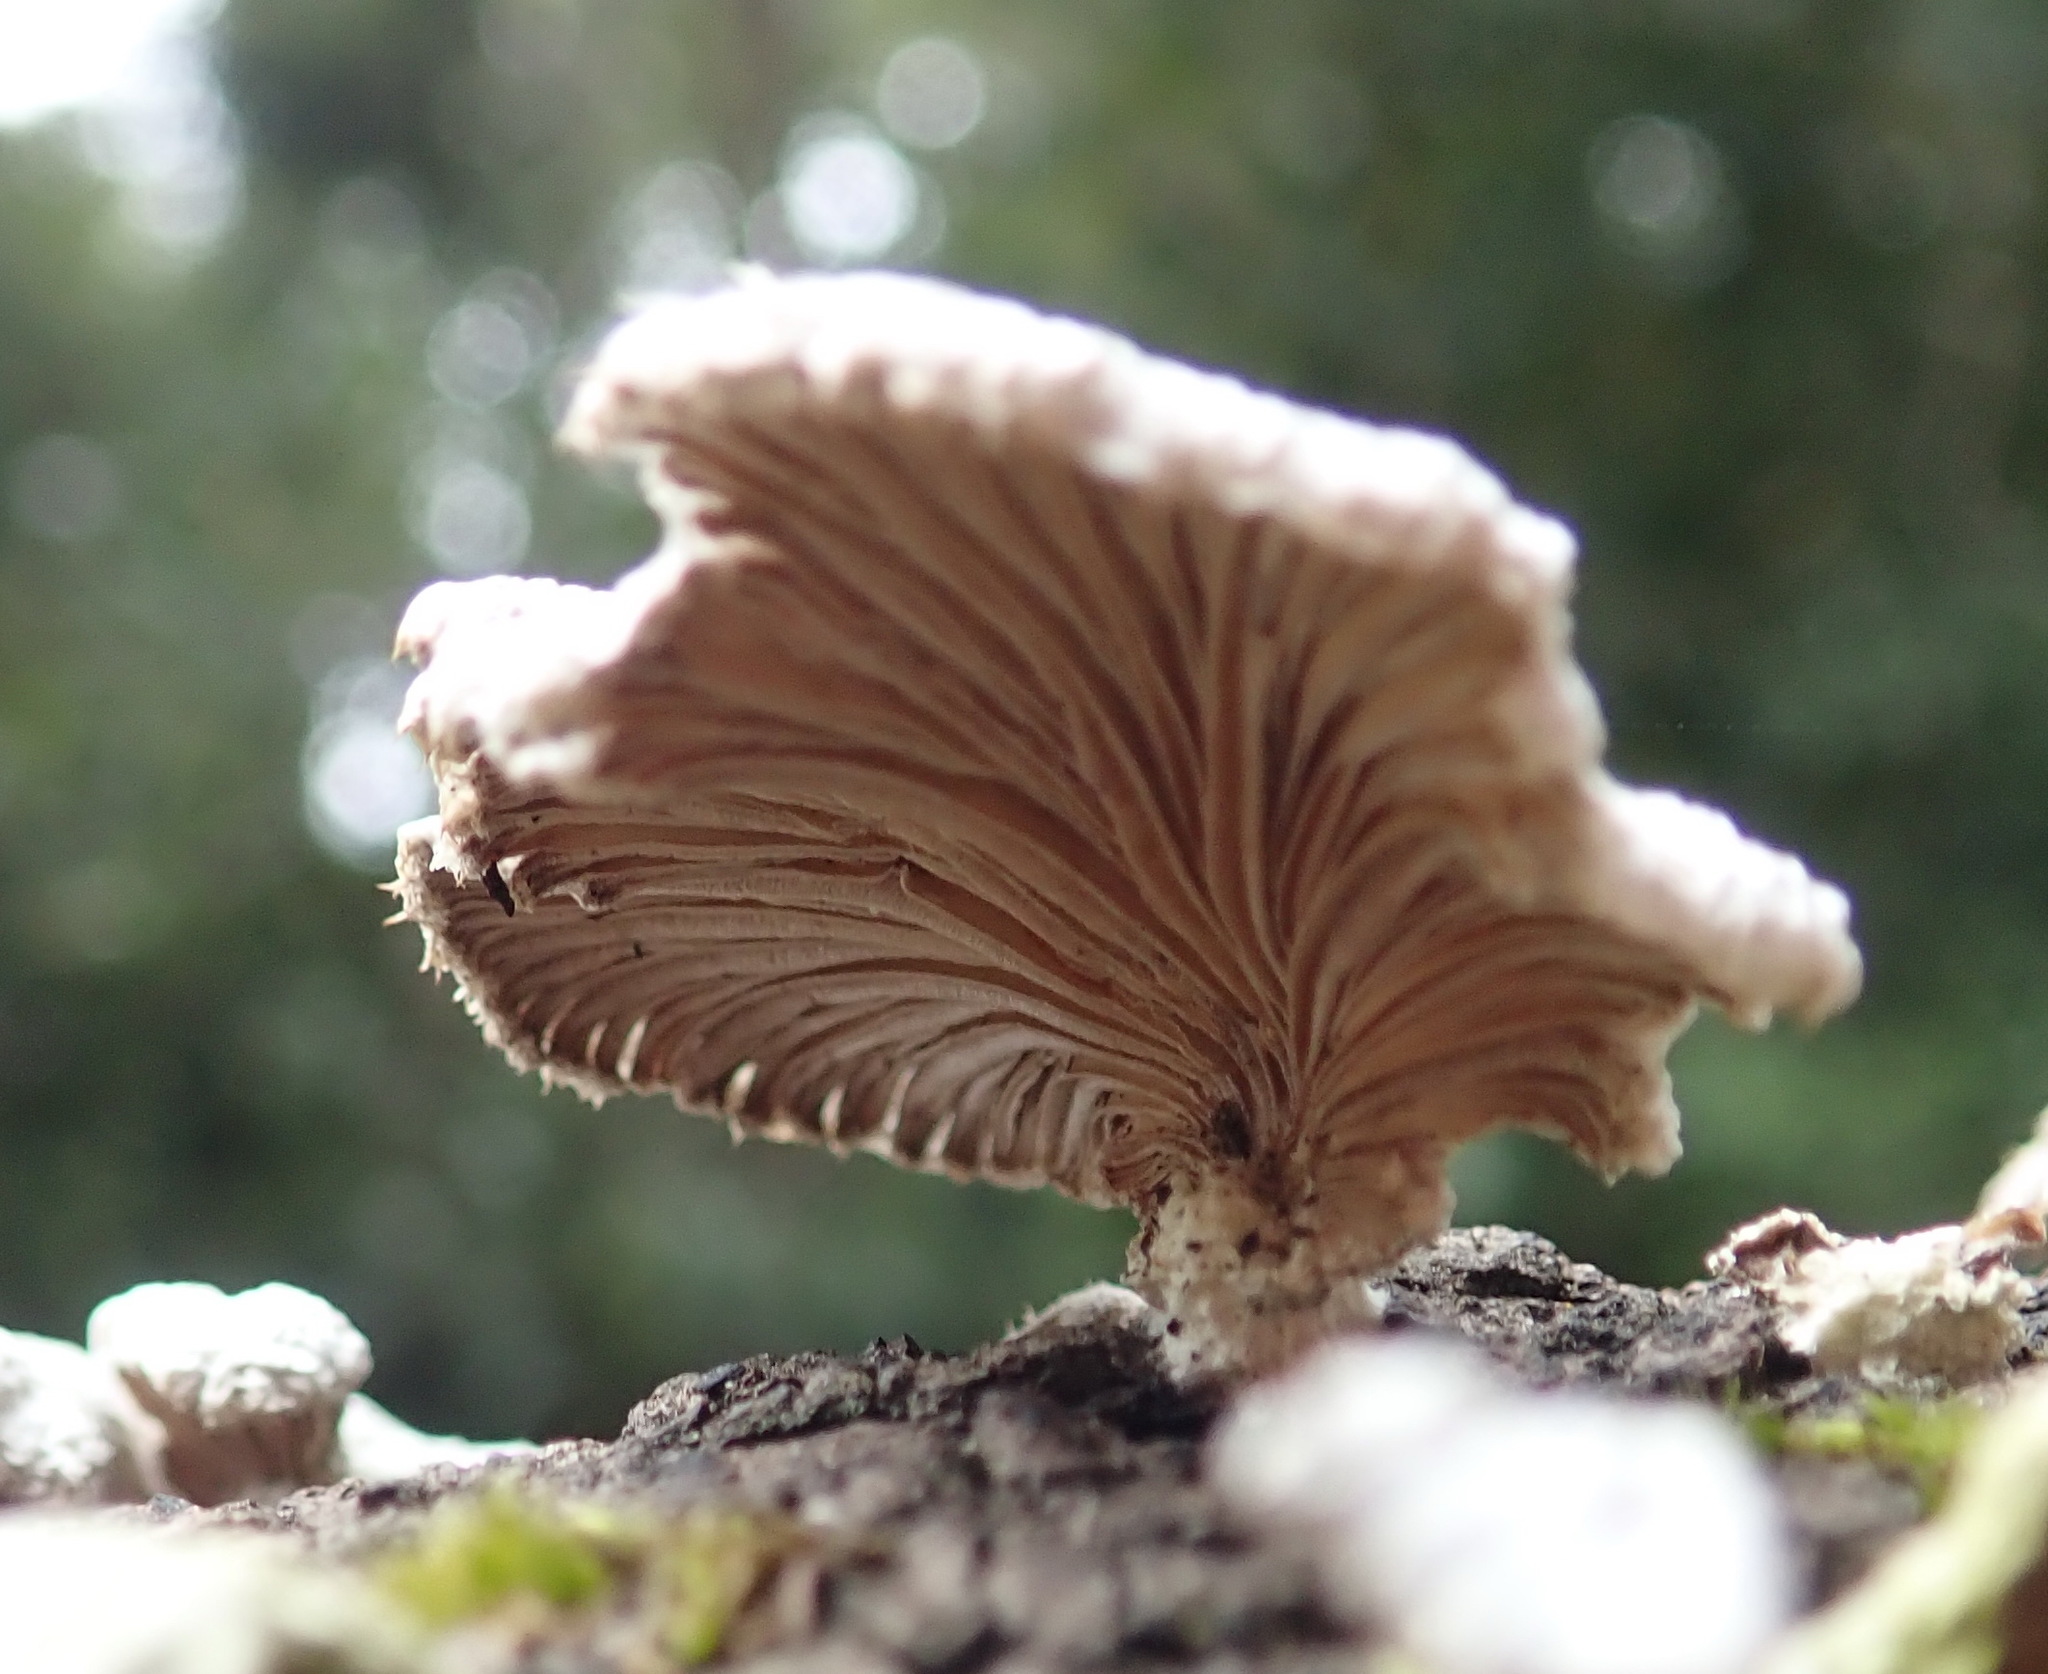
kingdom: Fungi
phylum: Basidiomycota
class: Agaricomycetes
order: Agaricales
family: Schizophyllaceae
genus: Schizophyllum
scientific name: Schizophyllum commune
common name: Common porecrust
